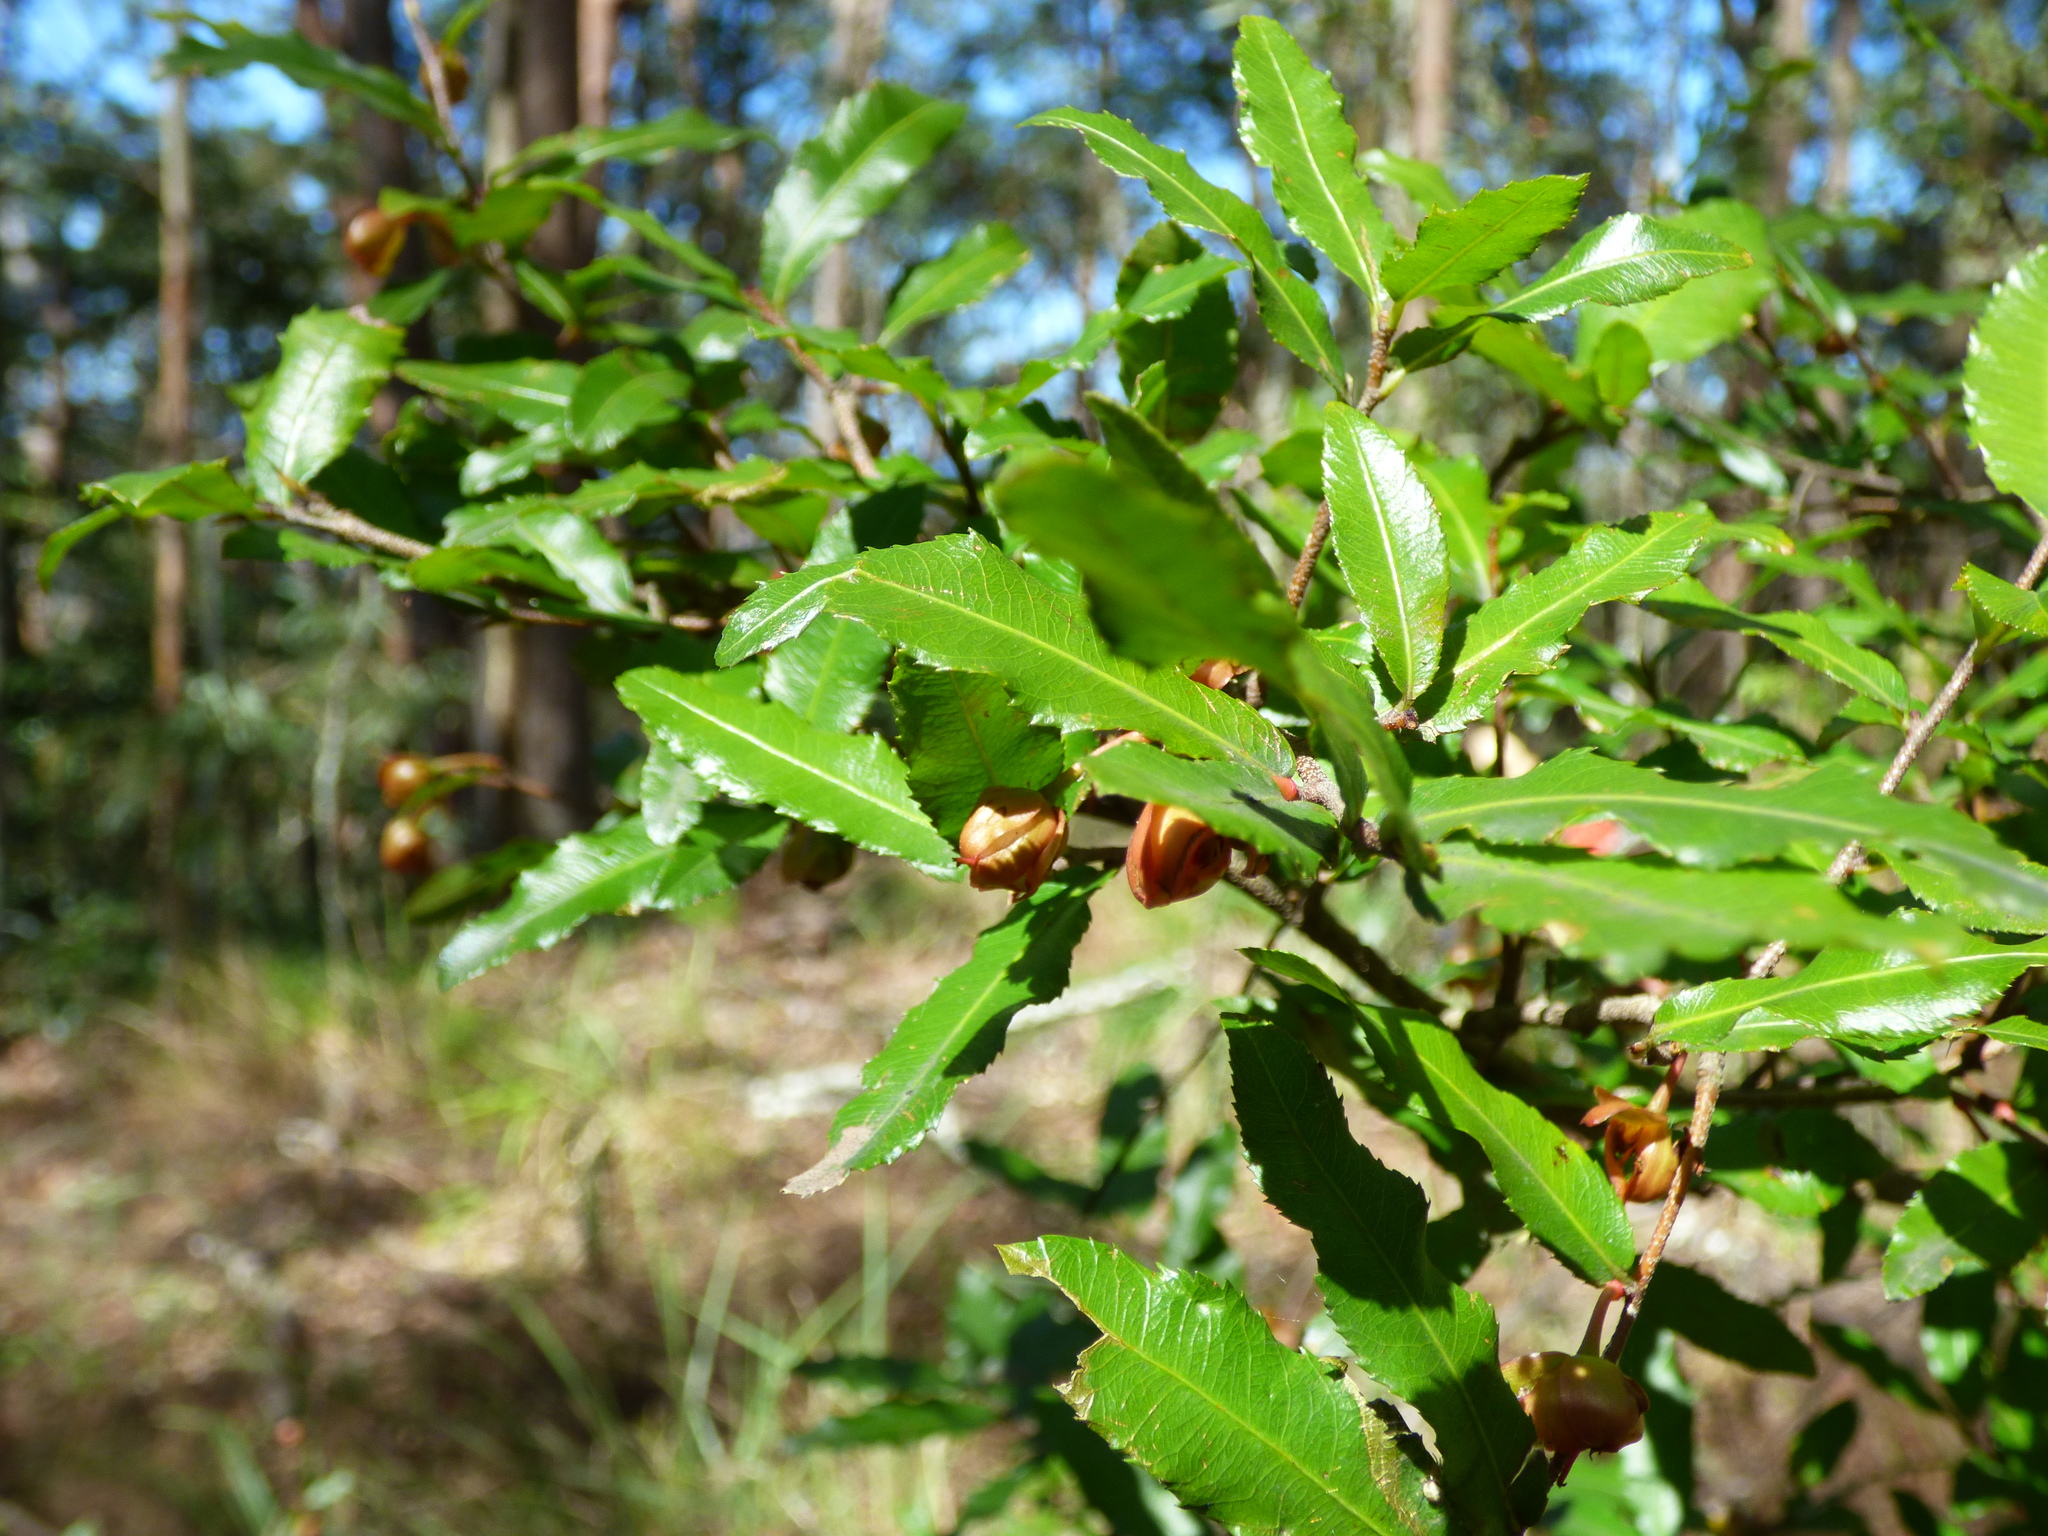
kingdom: Plantae
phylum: Tracheophyta
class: Magnoliopsida
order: Malpighiales
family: Ochnaceae
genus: Ochna
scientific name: Ochna serrulata
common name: Mickey mouse plant
